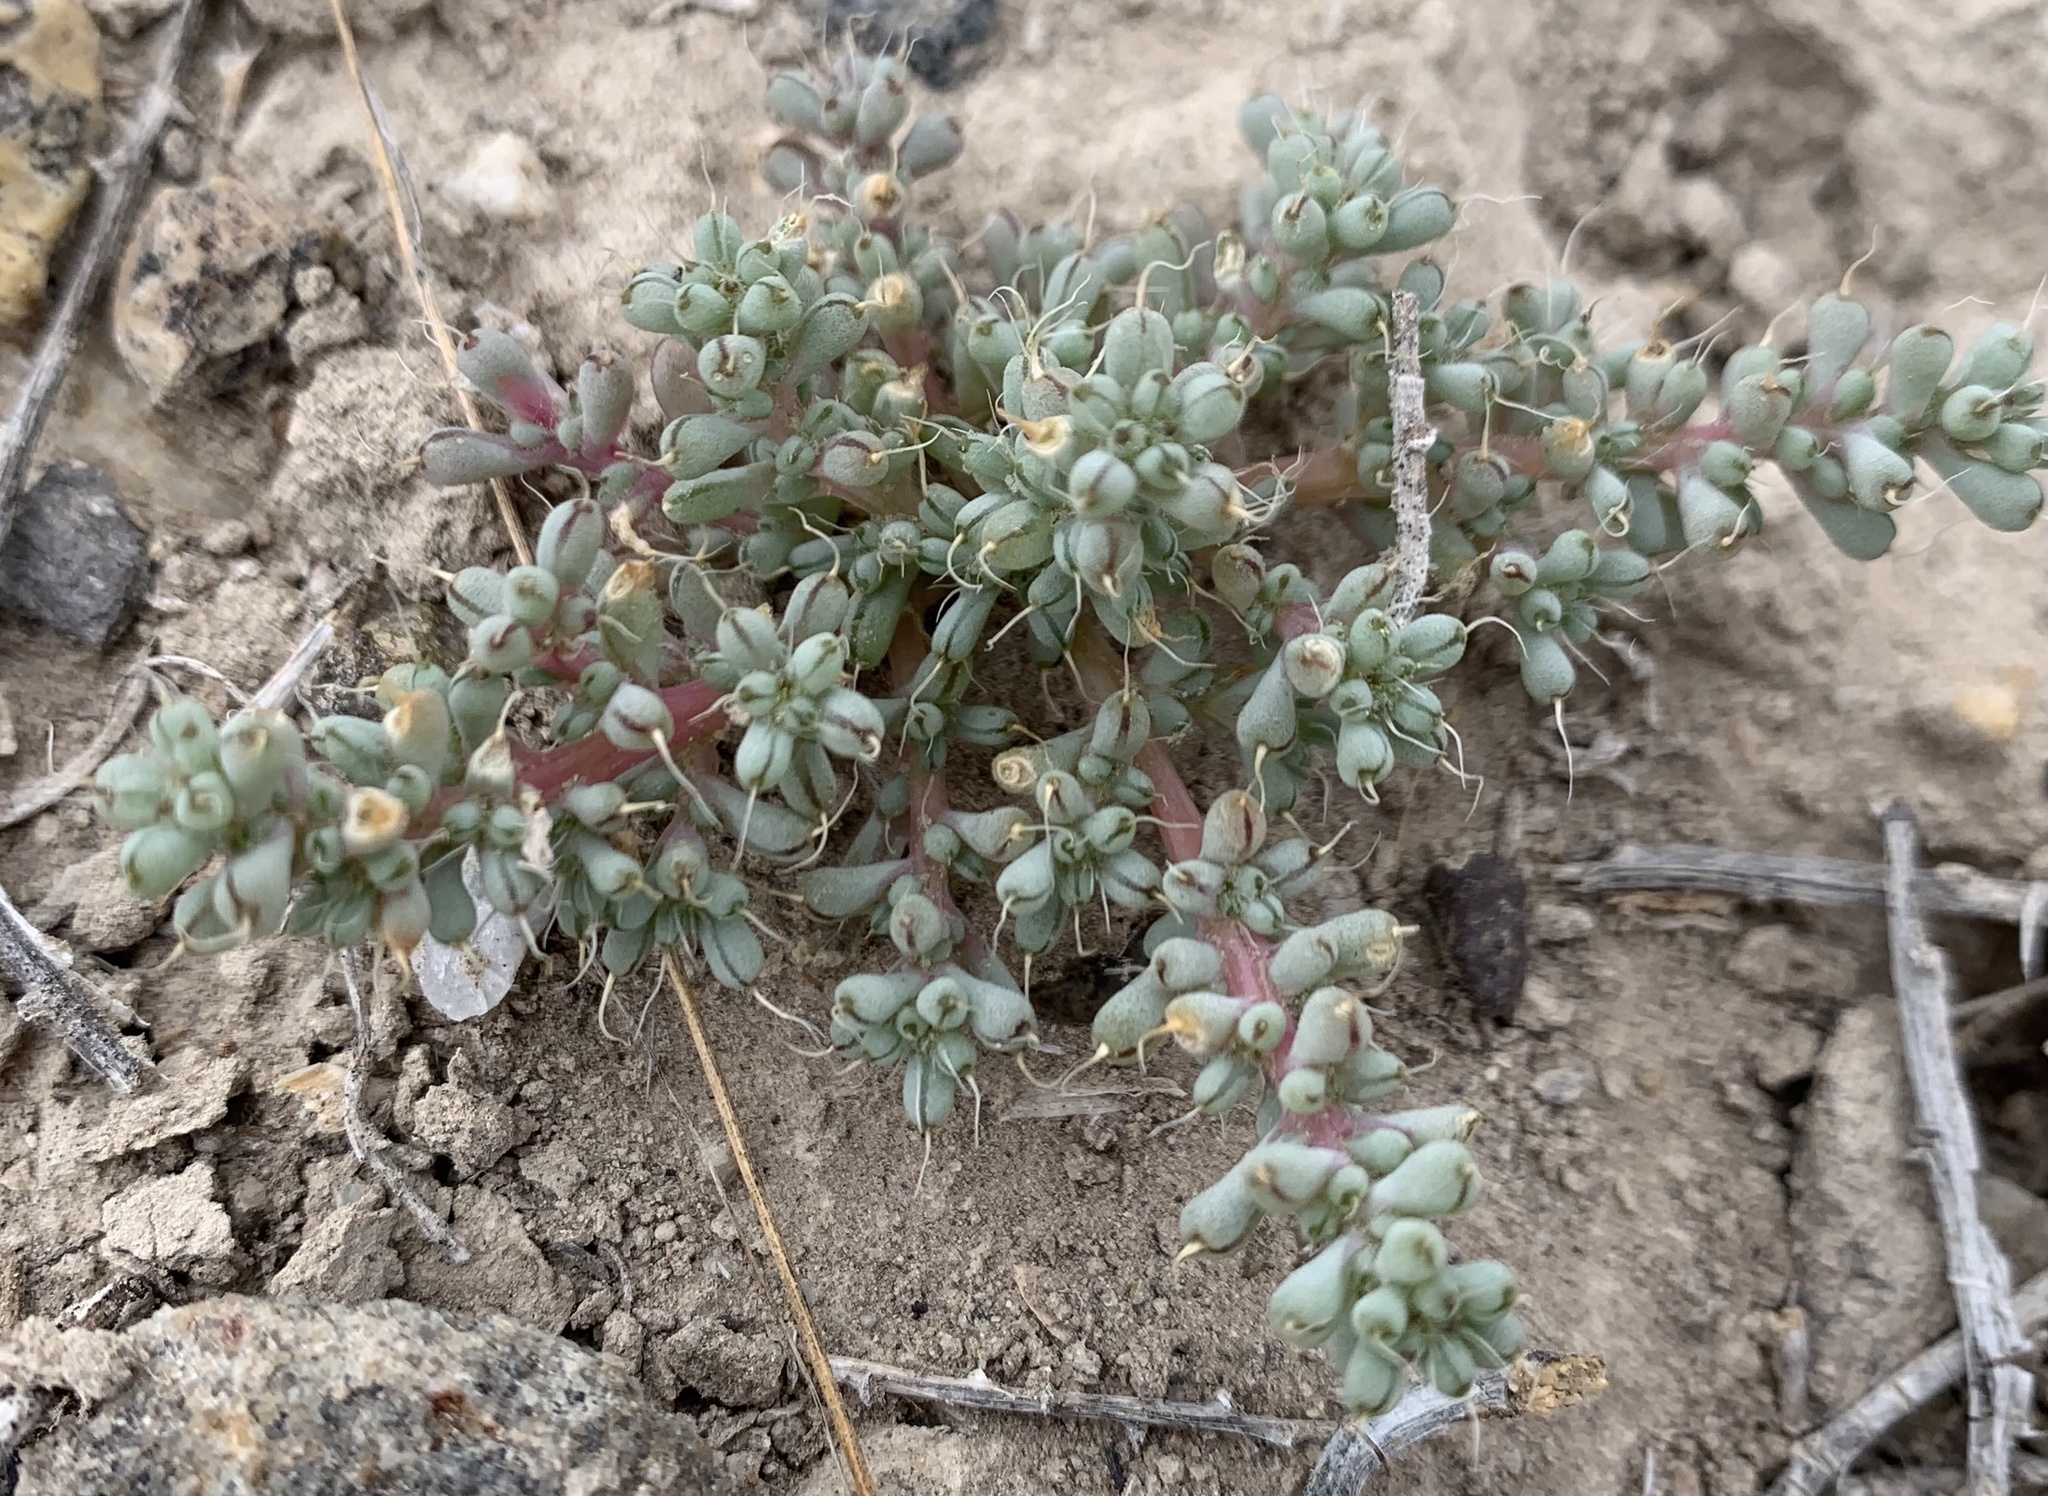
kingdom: Plantae
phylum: Tracheophyta
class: Magnoliopsida
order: Caryophyllales
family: Amaranthaceae
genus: Halogeton
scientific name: Halogeton glomeratus
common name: Saltlover
